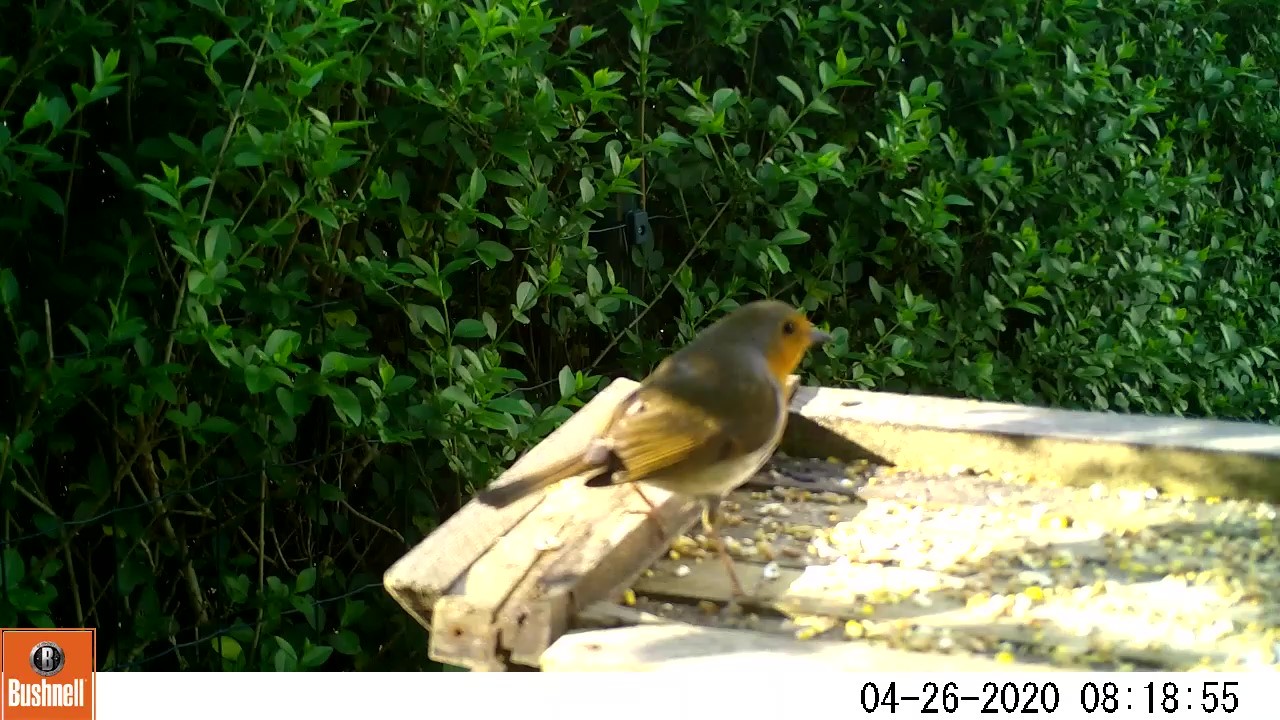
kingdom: Animalia
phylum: Chordata
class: Aves
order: Passeriformes
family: Muscicapidae
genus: Erithacus
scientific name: Erithacus rubecula
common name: European robin
